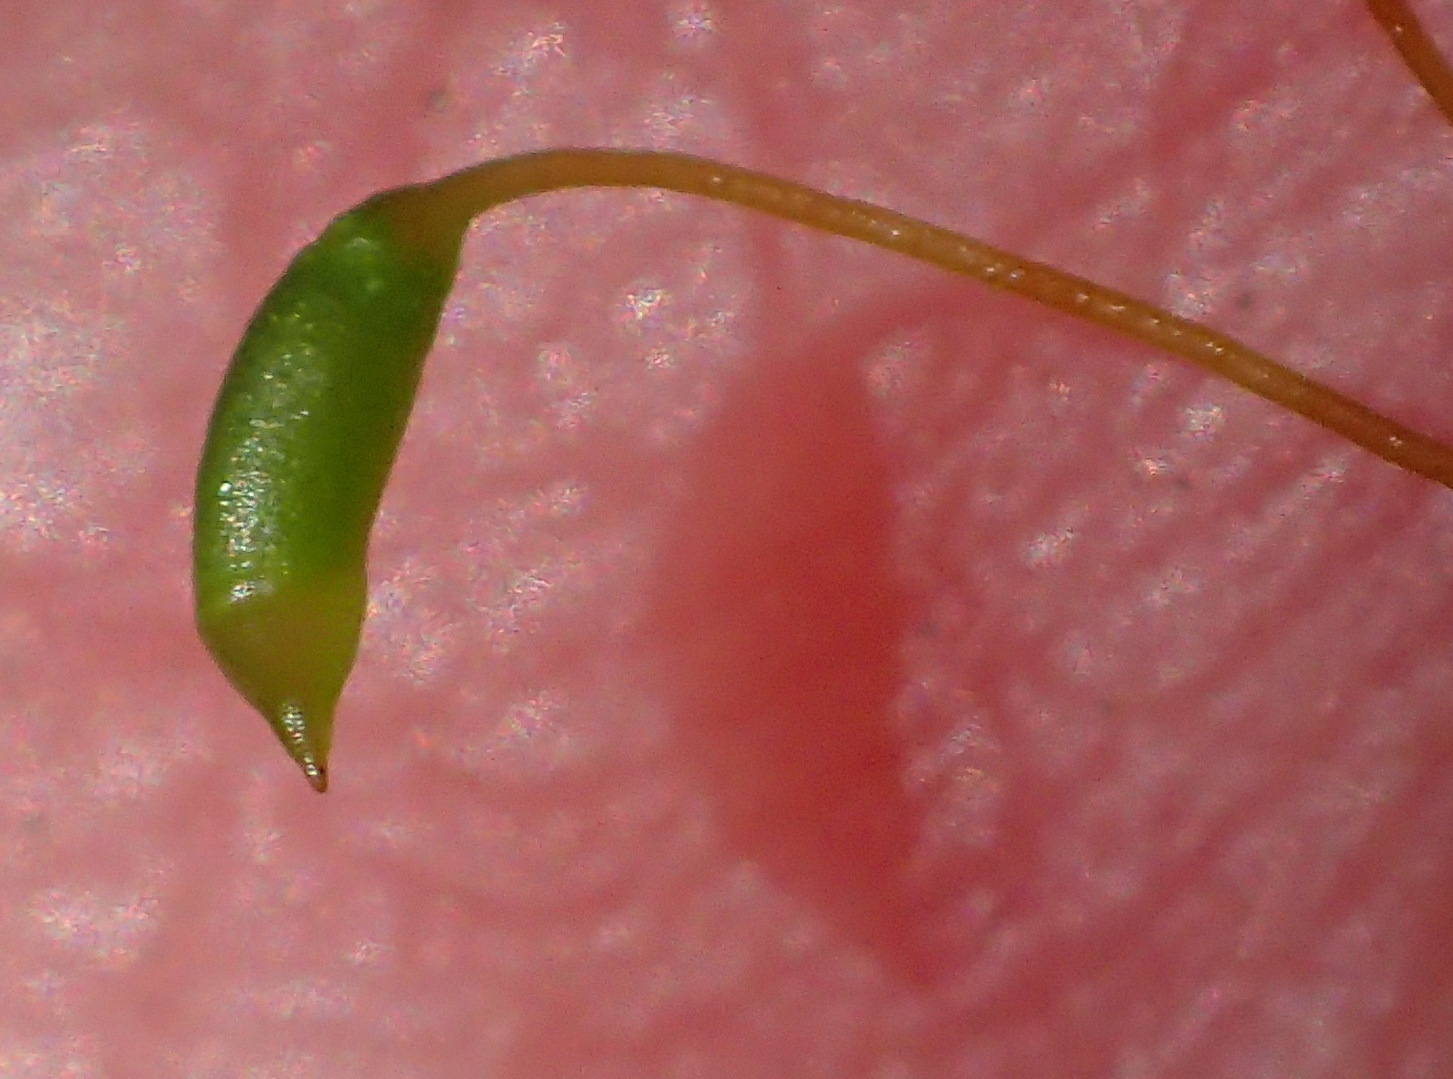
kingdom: Plantae
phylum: Bryophyta
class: Bryopsida
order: Hypnales
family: Hypnaceae
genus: Mittenothamnium
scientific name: Mittenothamnium reptans
